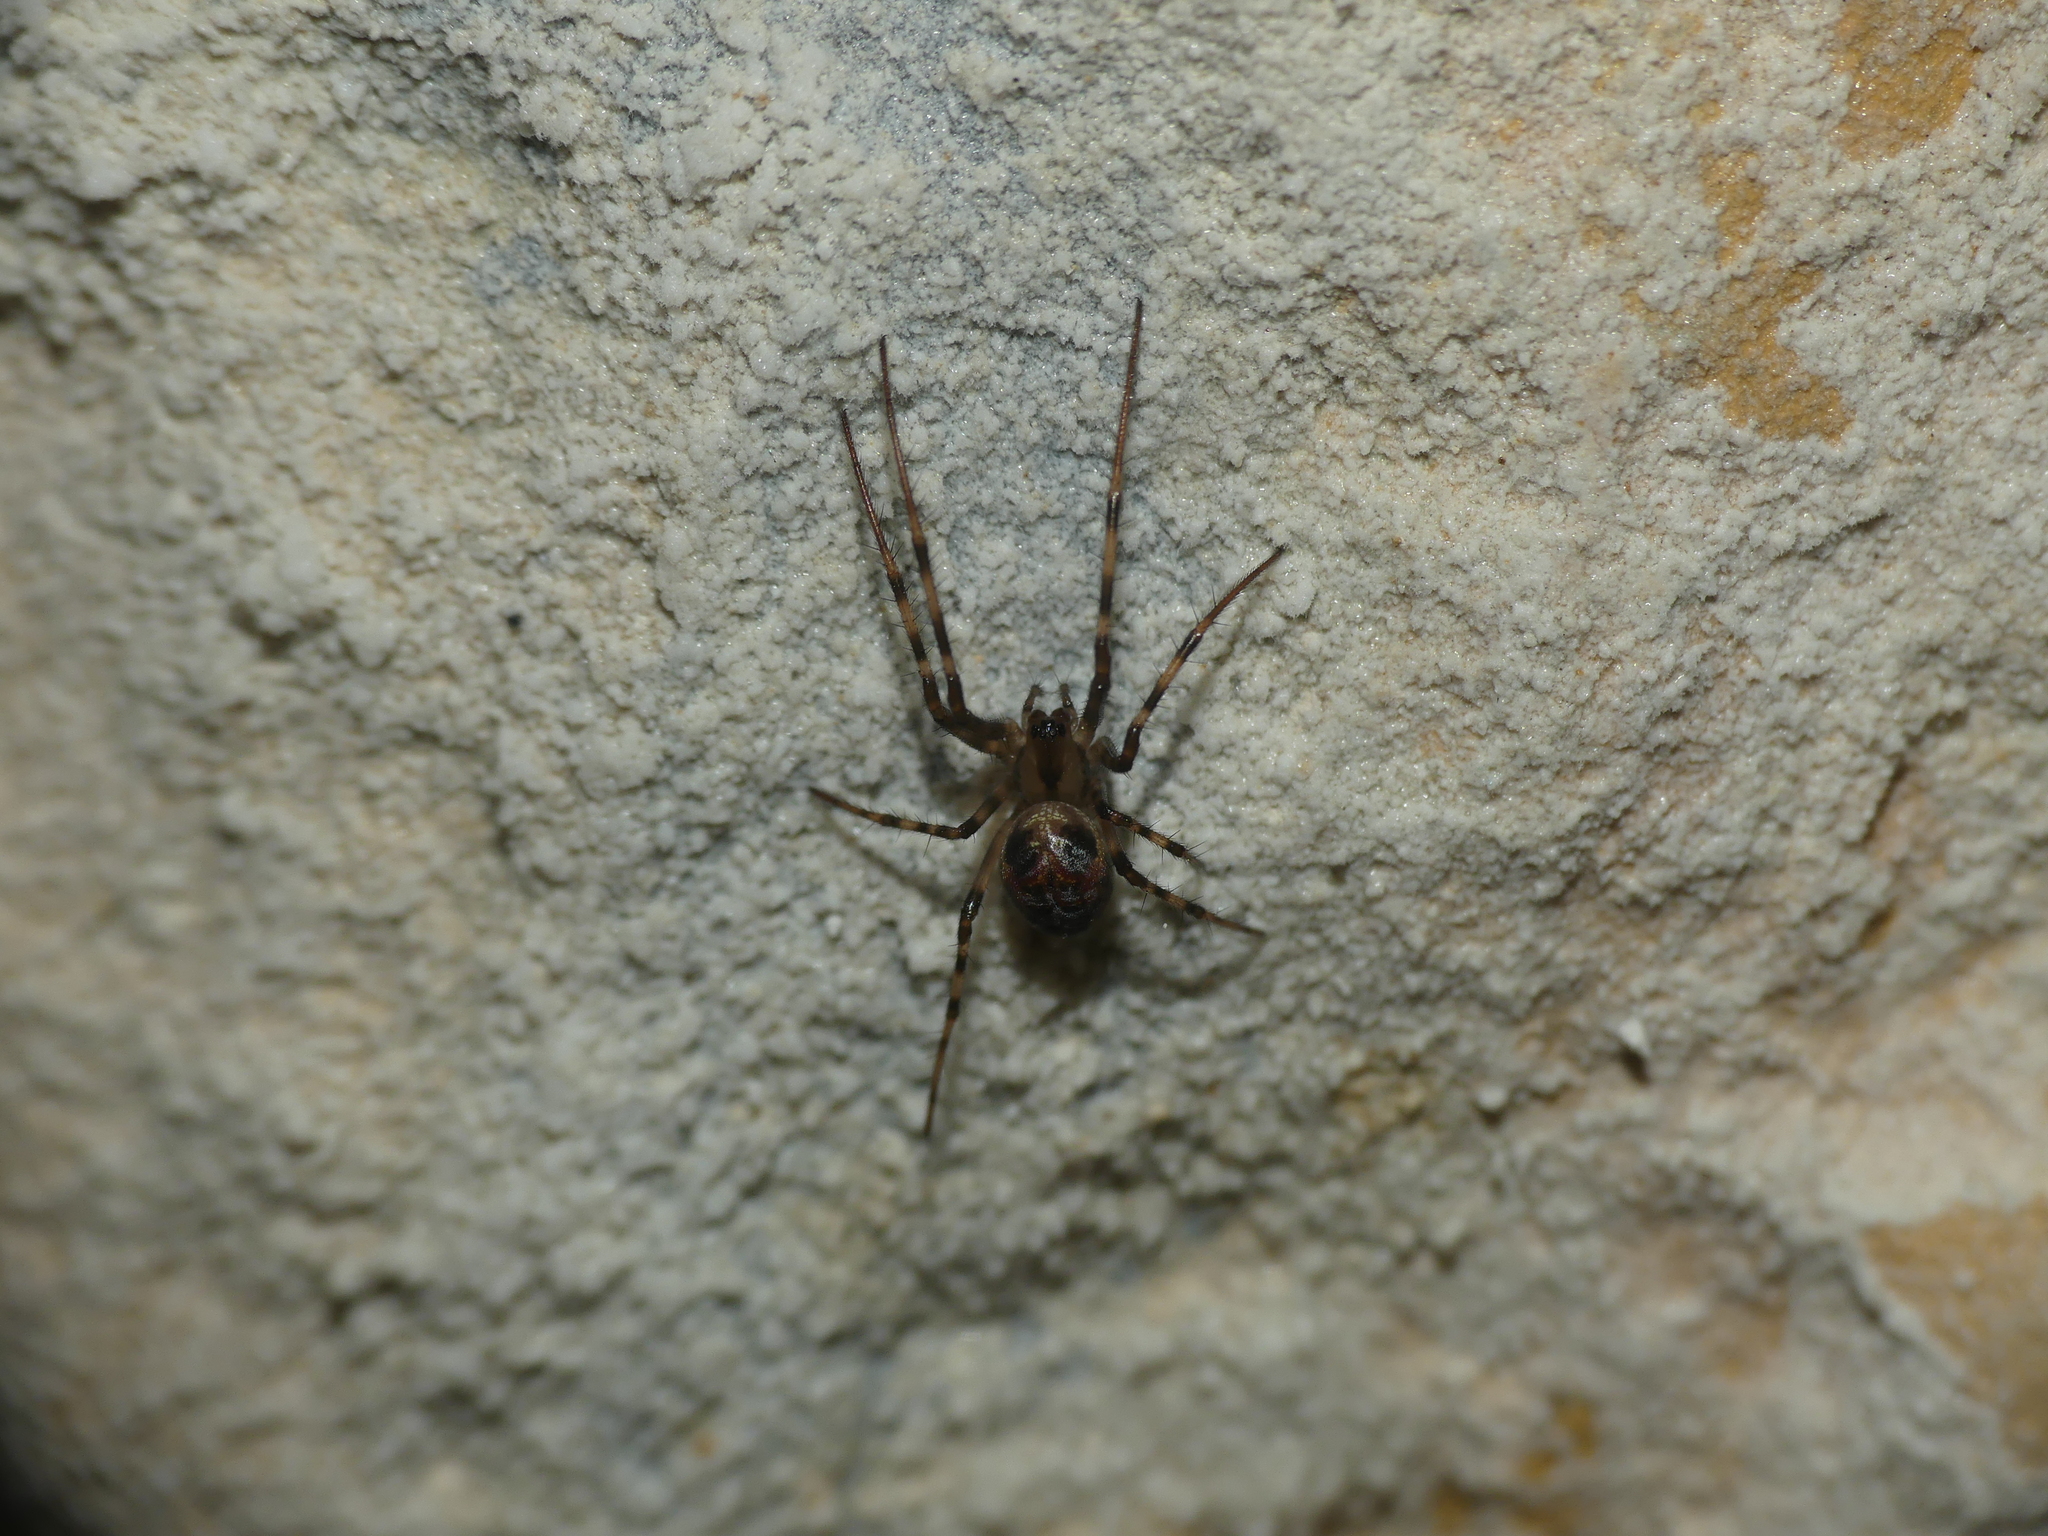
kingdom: Animalia
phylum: Arthropoda
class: Arachnida
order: Araneae
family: Tetragnathidae
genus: Meta
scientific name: Meta menardi
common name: Cave spider
